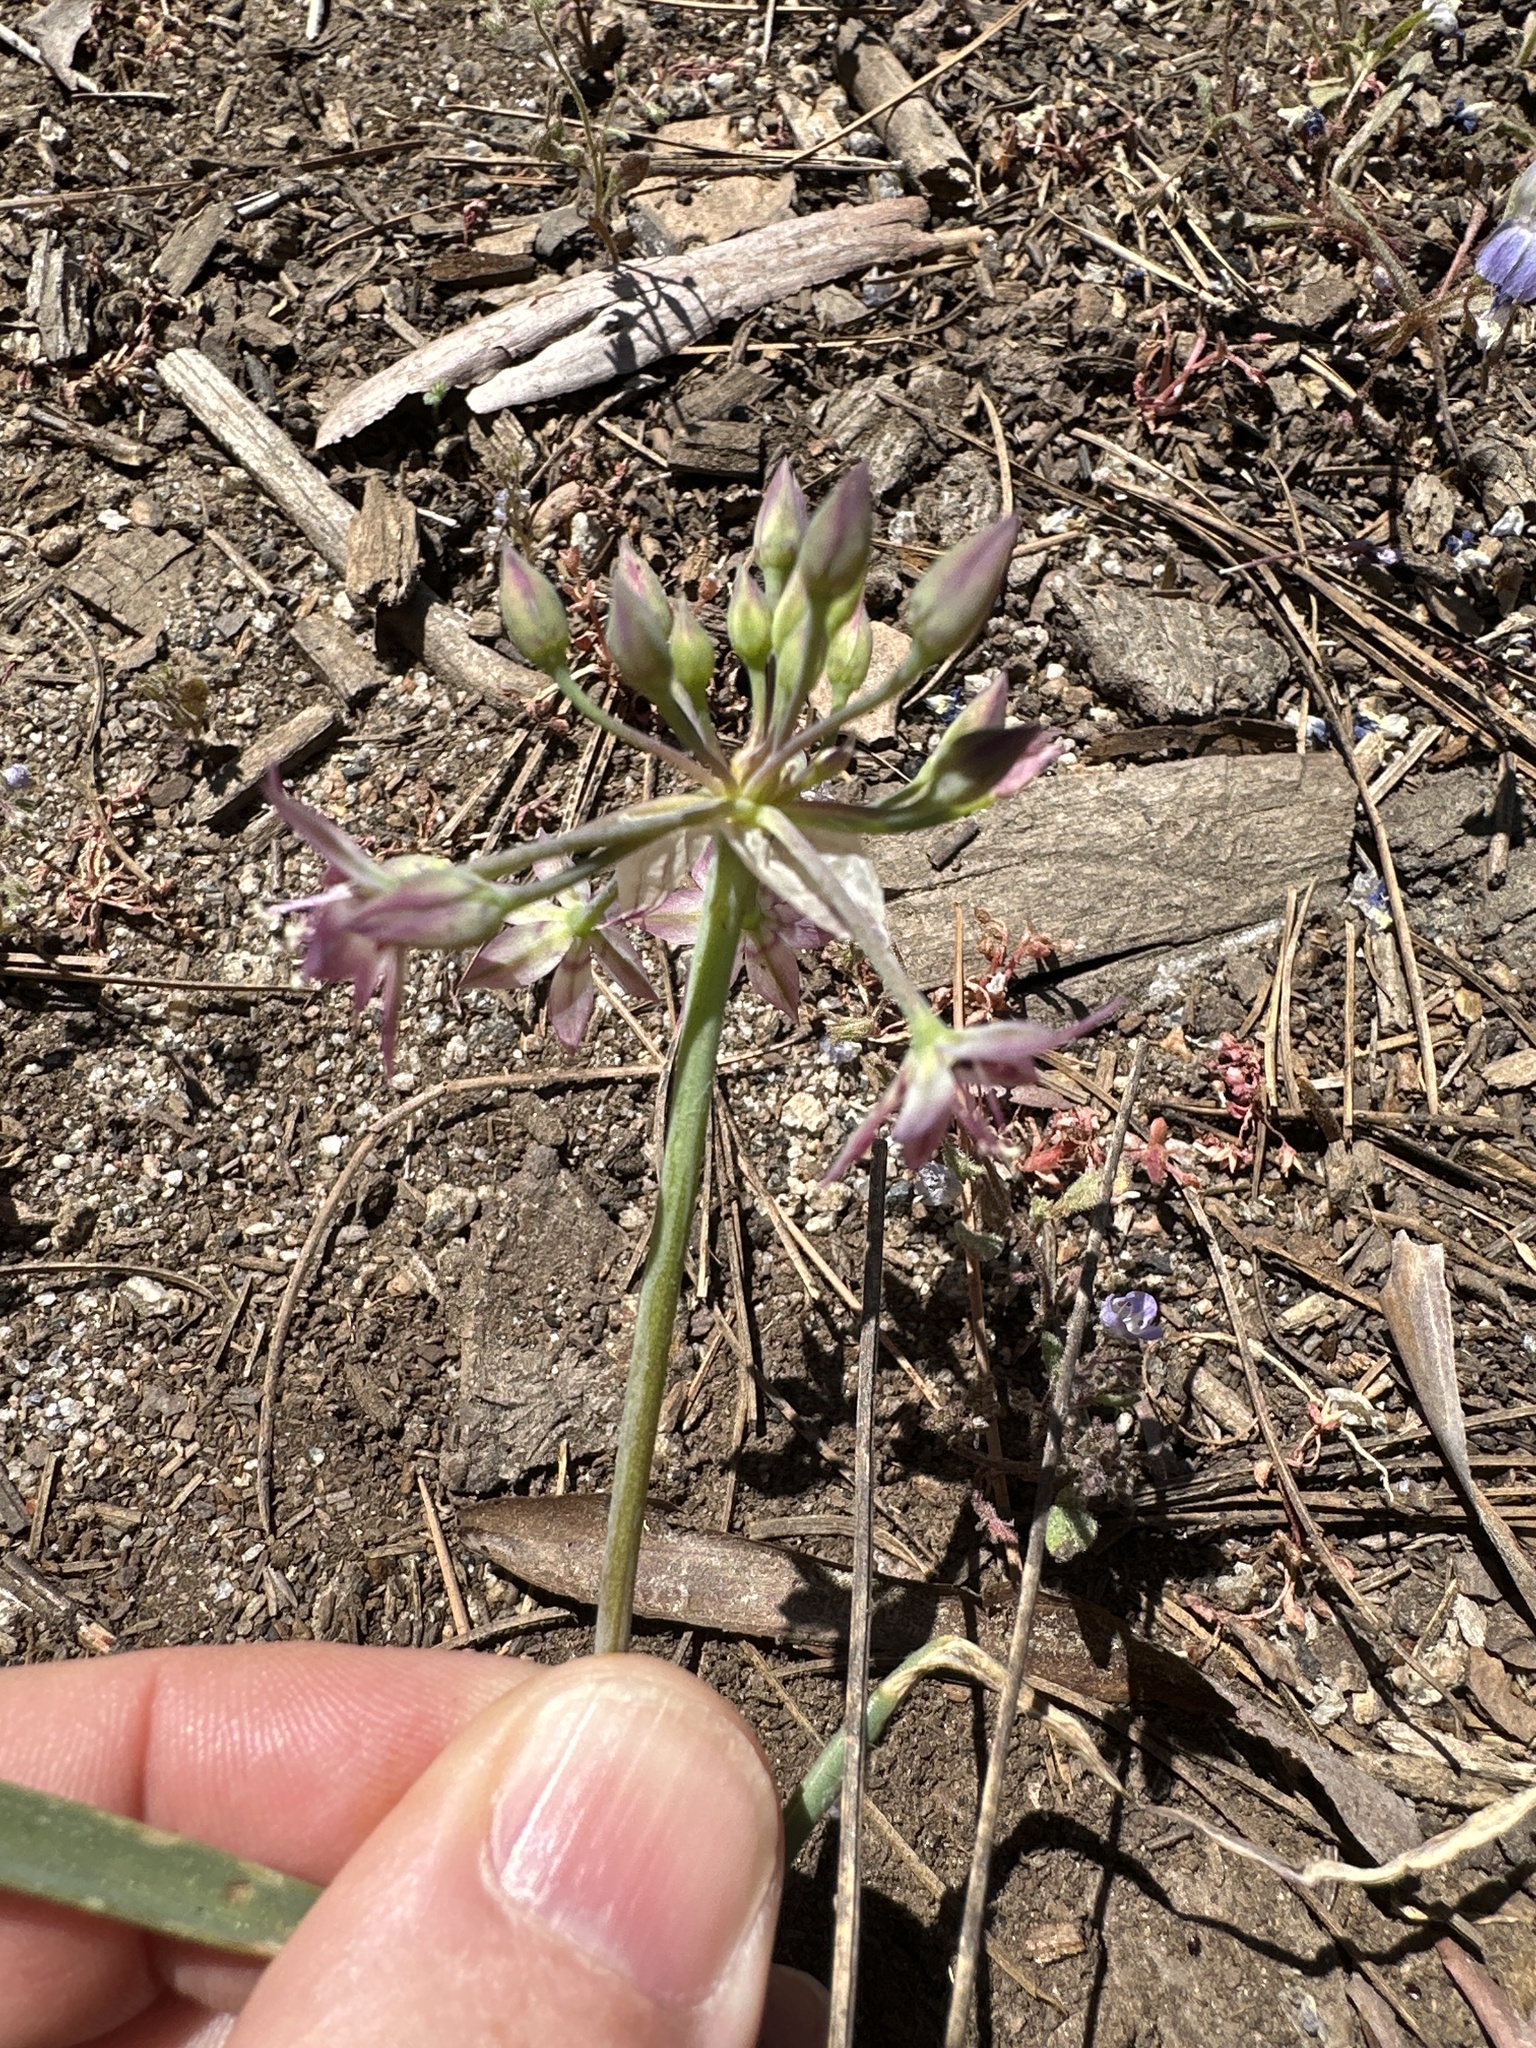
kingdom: Plantae
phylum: Tracheophyta
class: Liliopsida
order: Asparagales
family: Amaryllidaceae
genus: Allium
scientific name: Allium campanulatum
